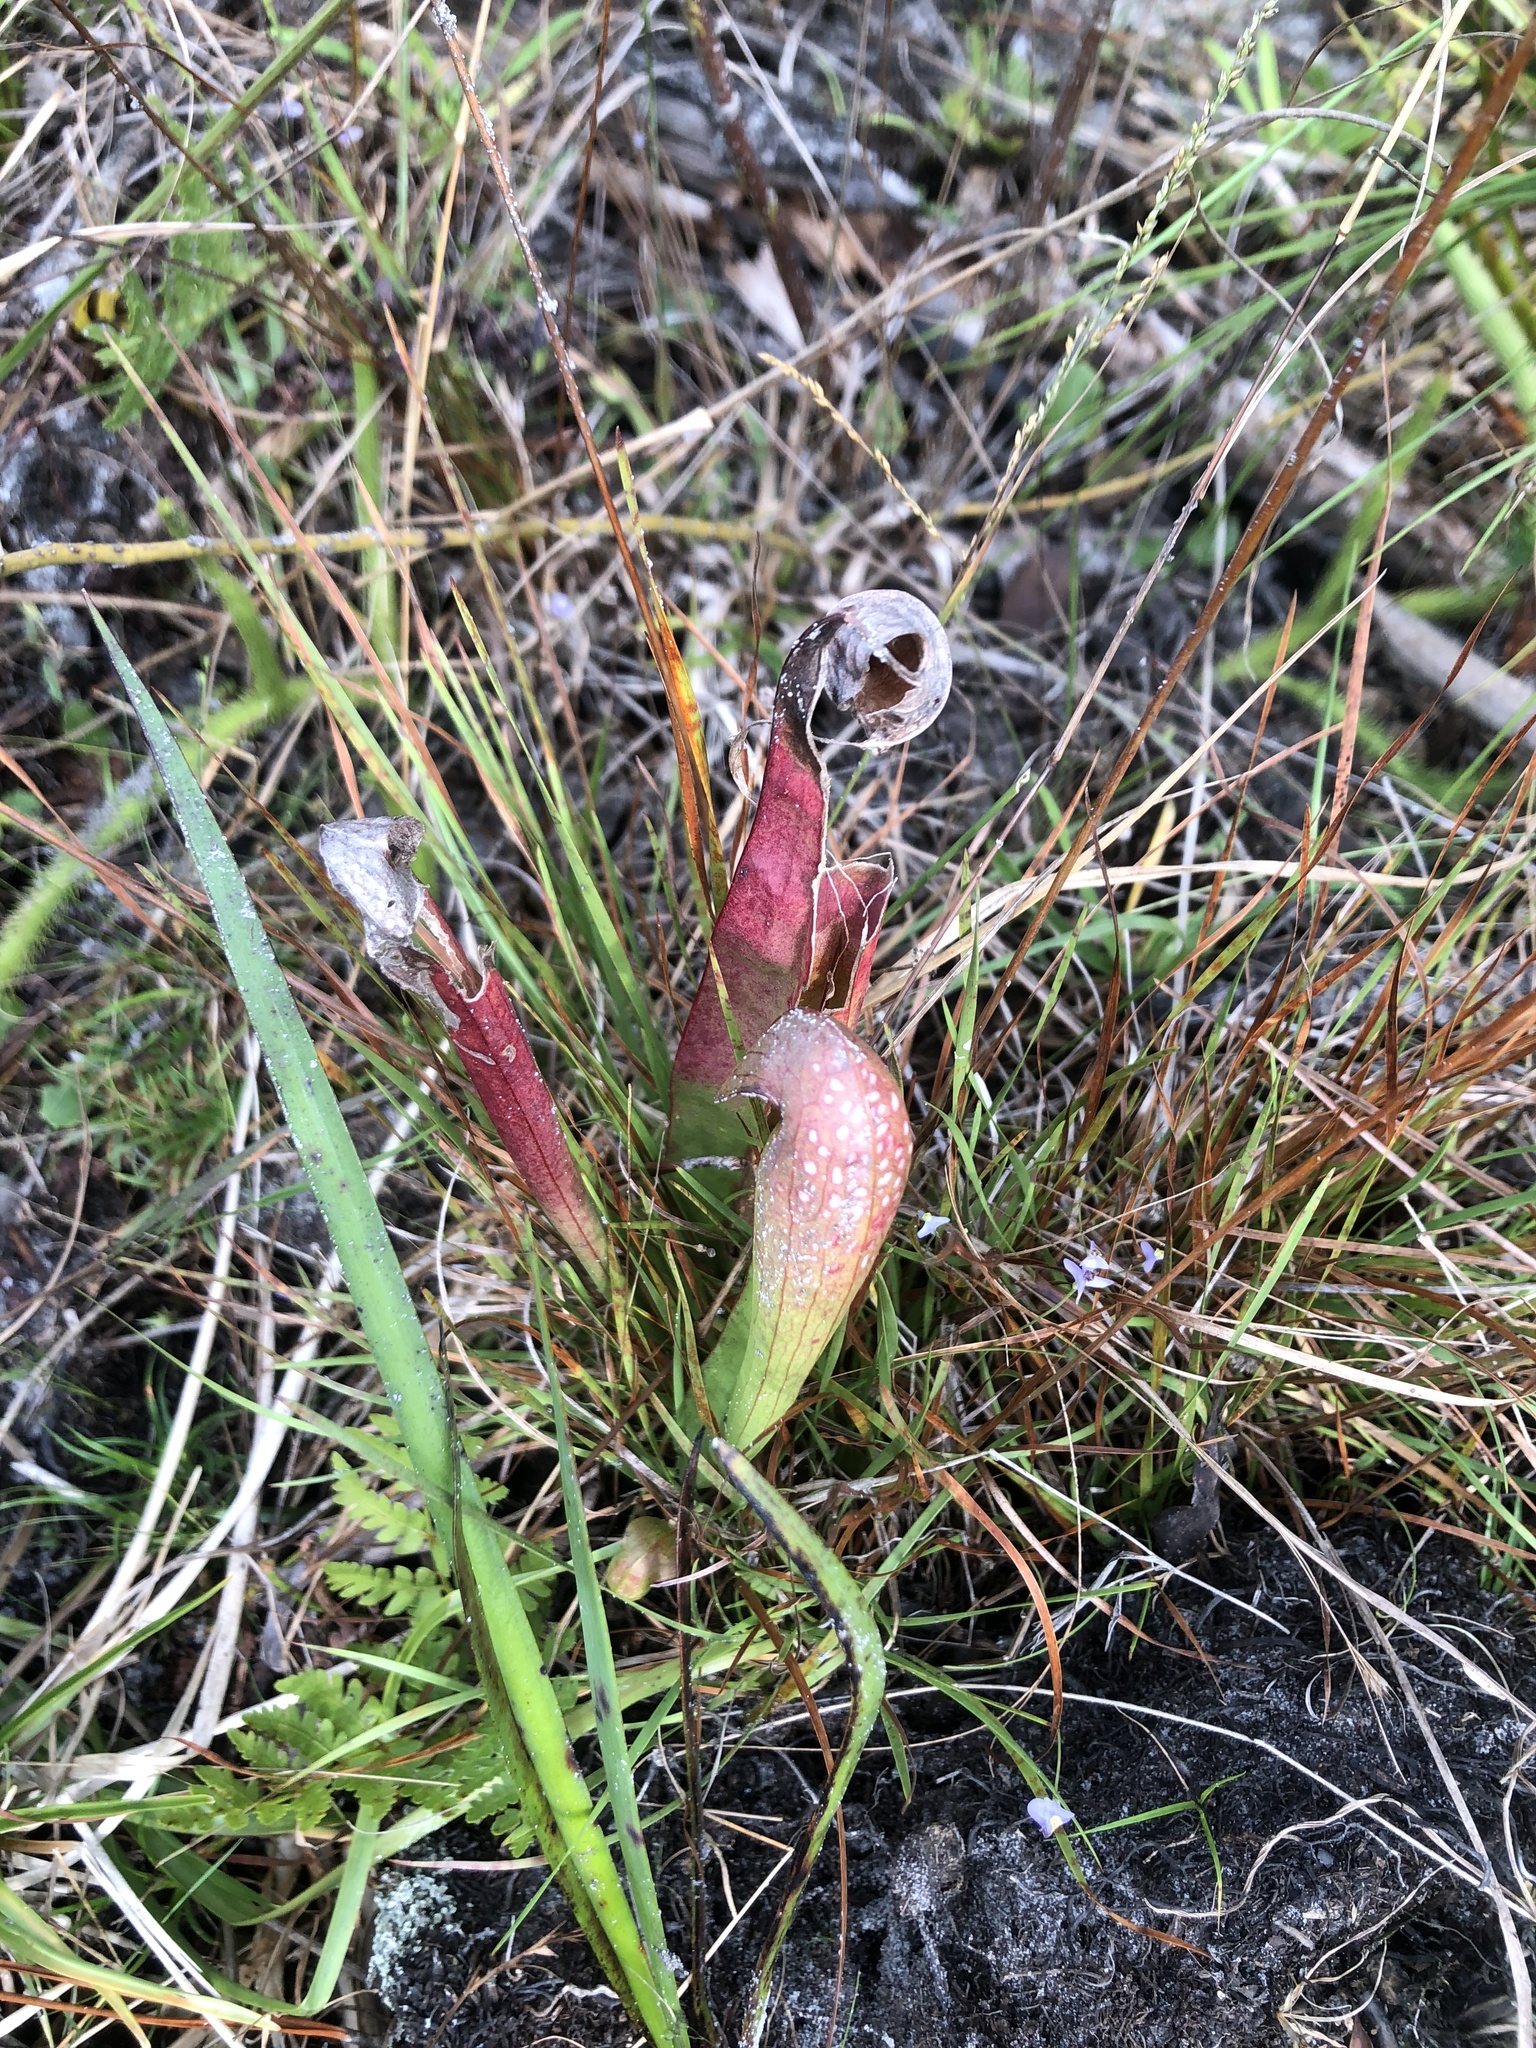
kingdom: Plantae
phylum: Tracheophyta
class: Magnoliopsida
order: Ericales
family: Sarraceniaceae
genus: Sarracenia
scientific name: Sarracenia minor
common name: Rainhat-trumpet
